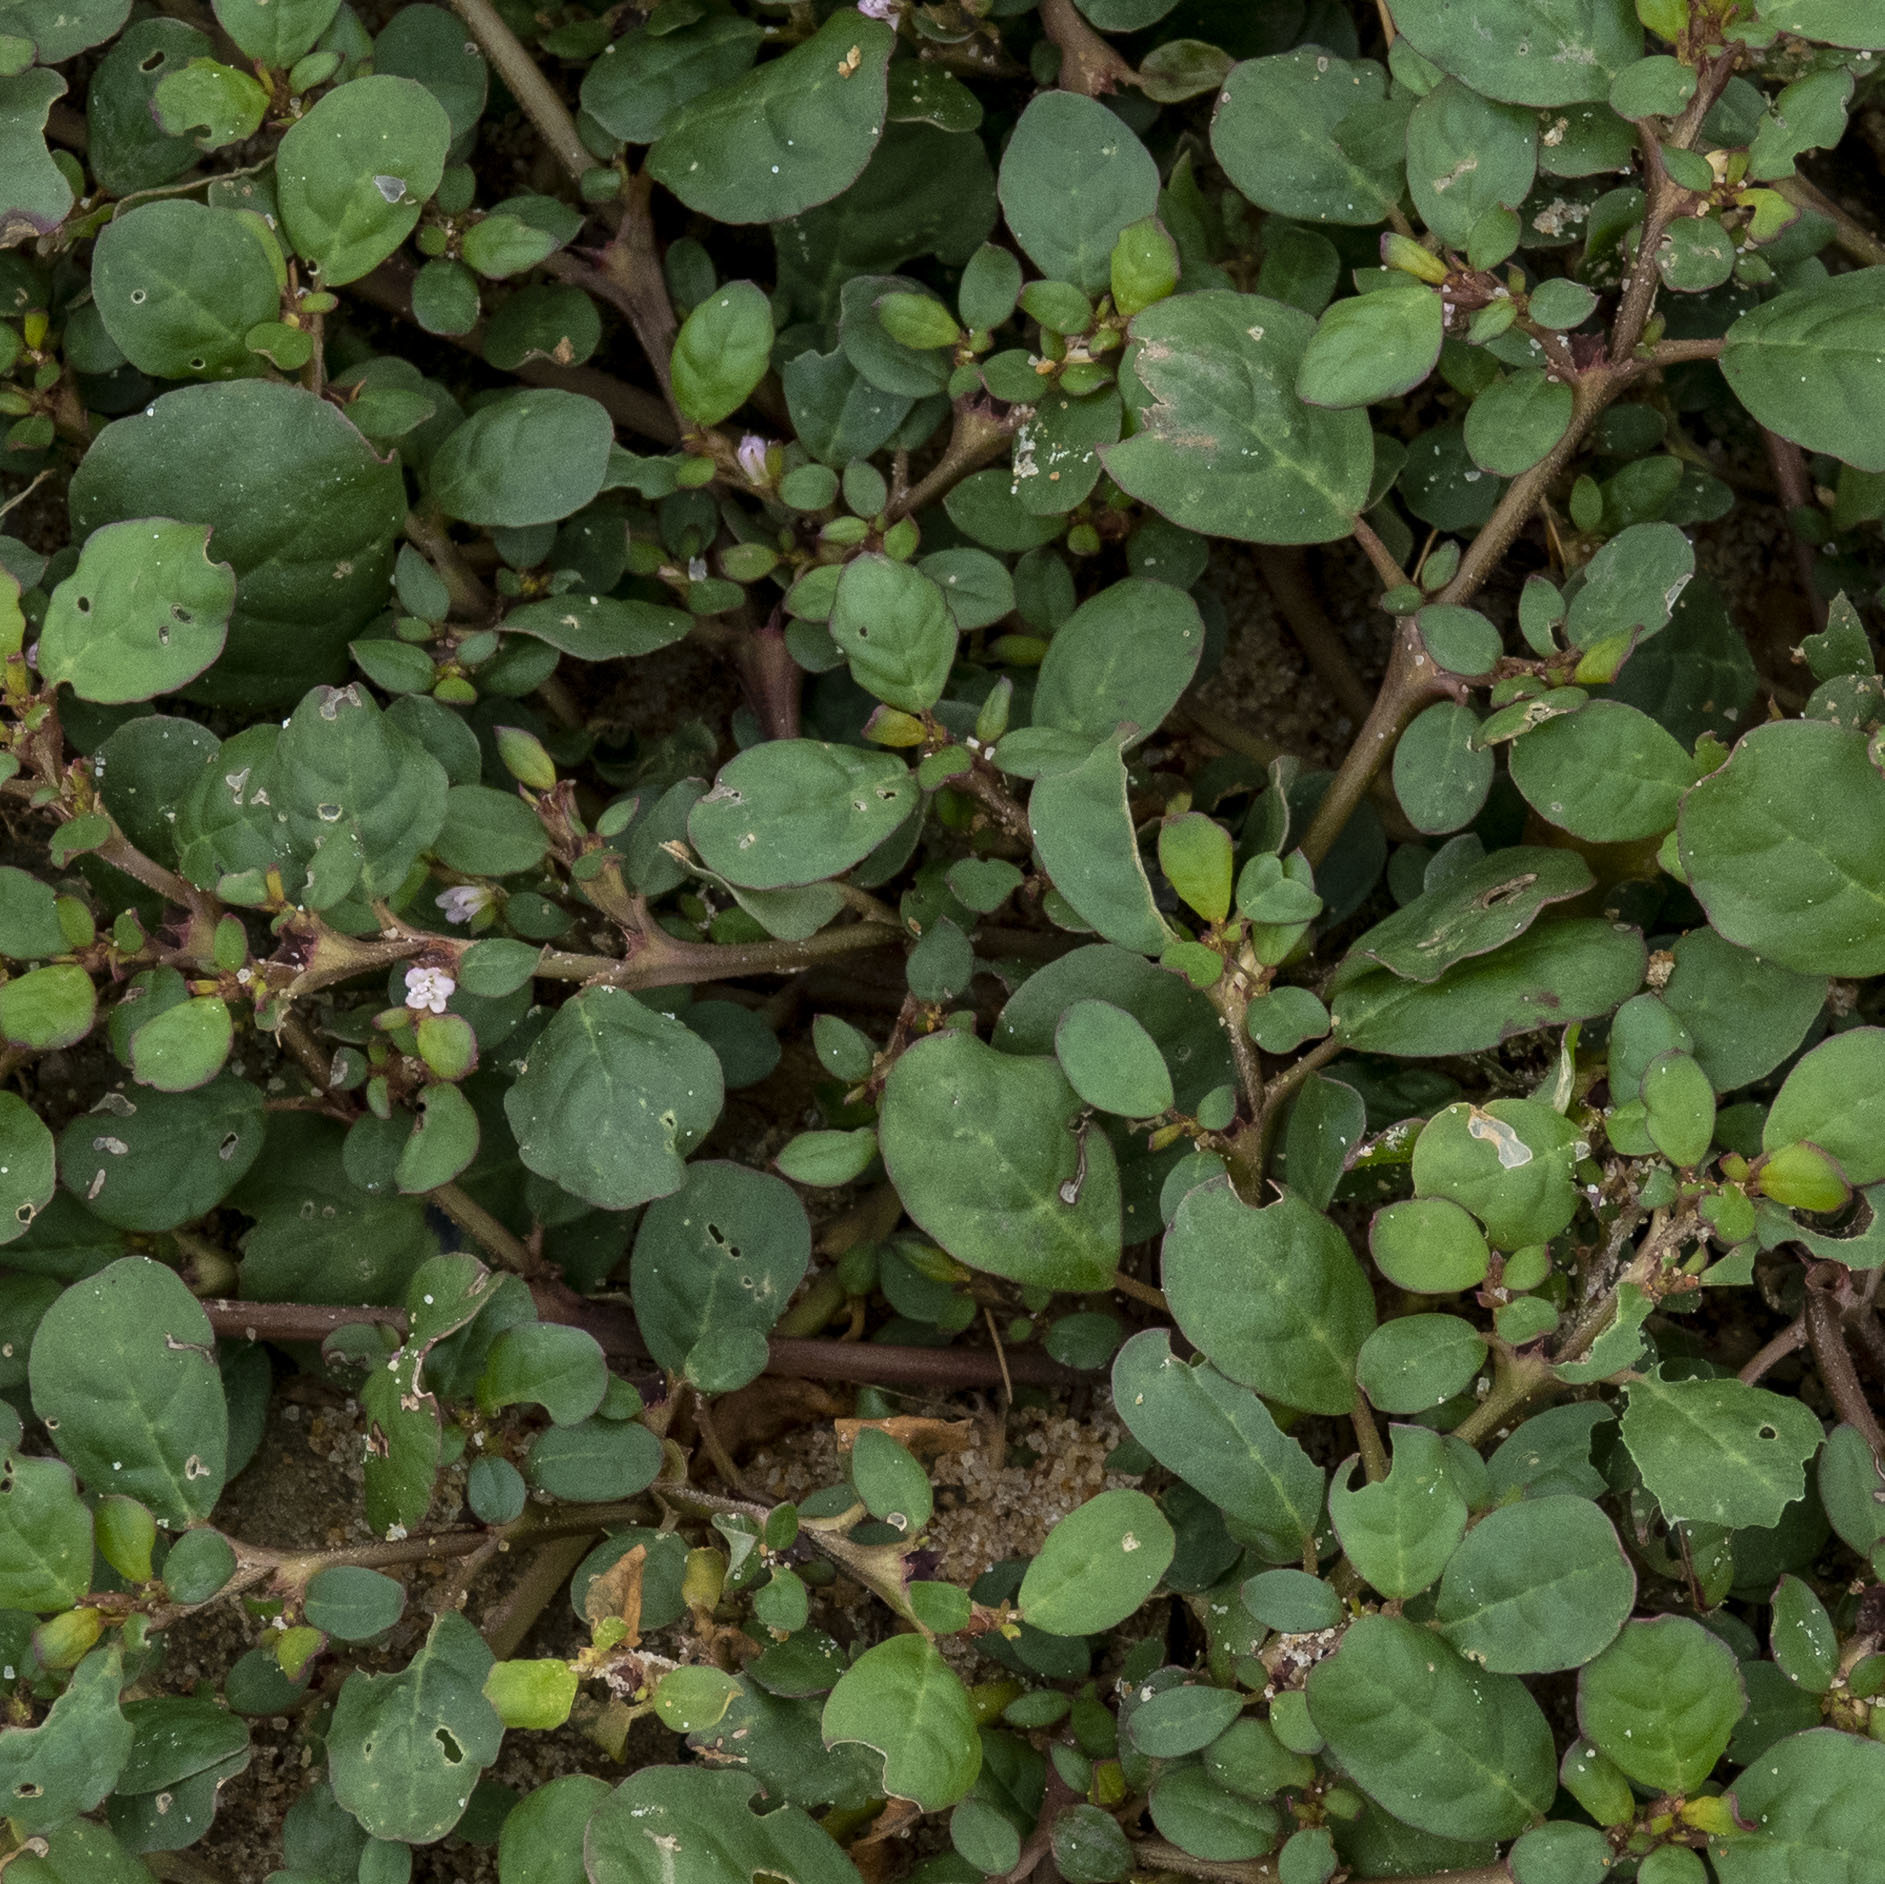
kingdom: Plantae
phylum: Tracheophyta
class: Magnoliopsida
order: Caryophyllales
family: Aizoaceae
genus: Trianthema
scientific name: Trianthema portulacastrum
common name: Desert horsepurslane
